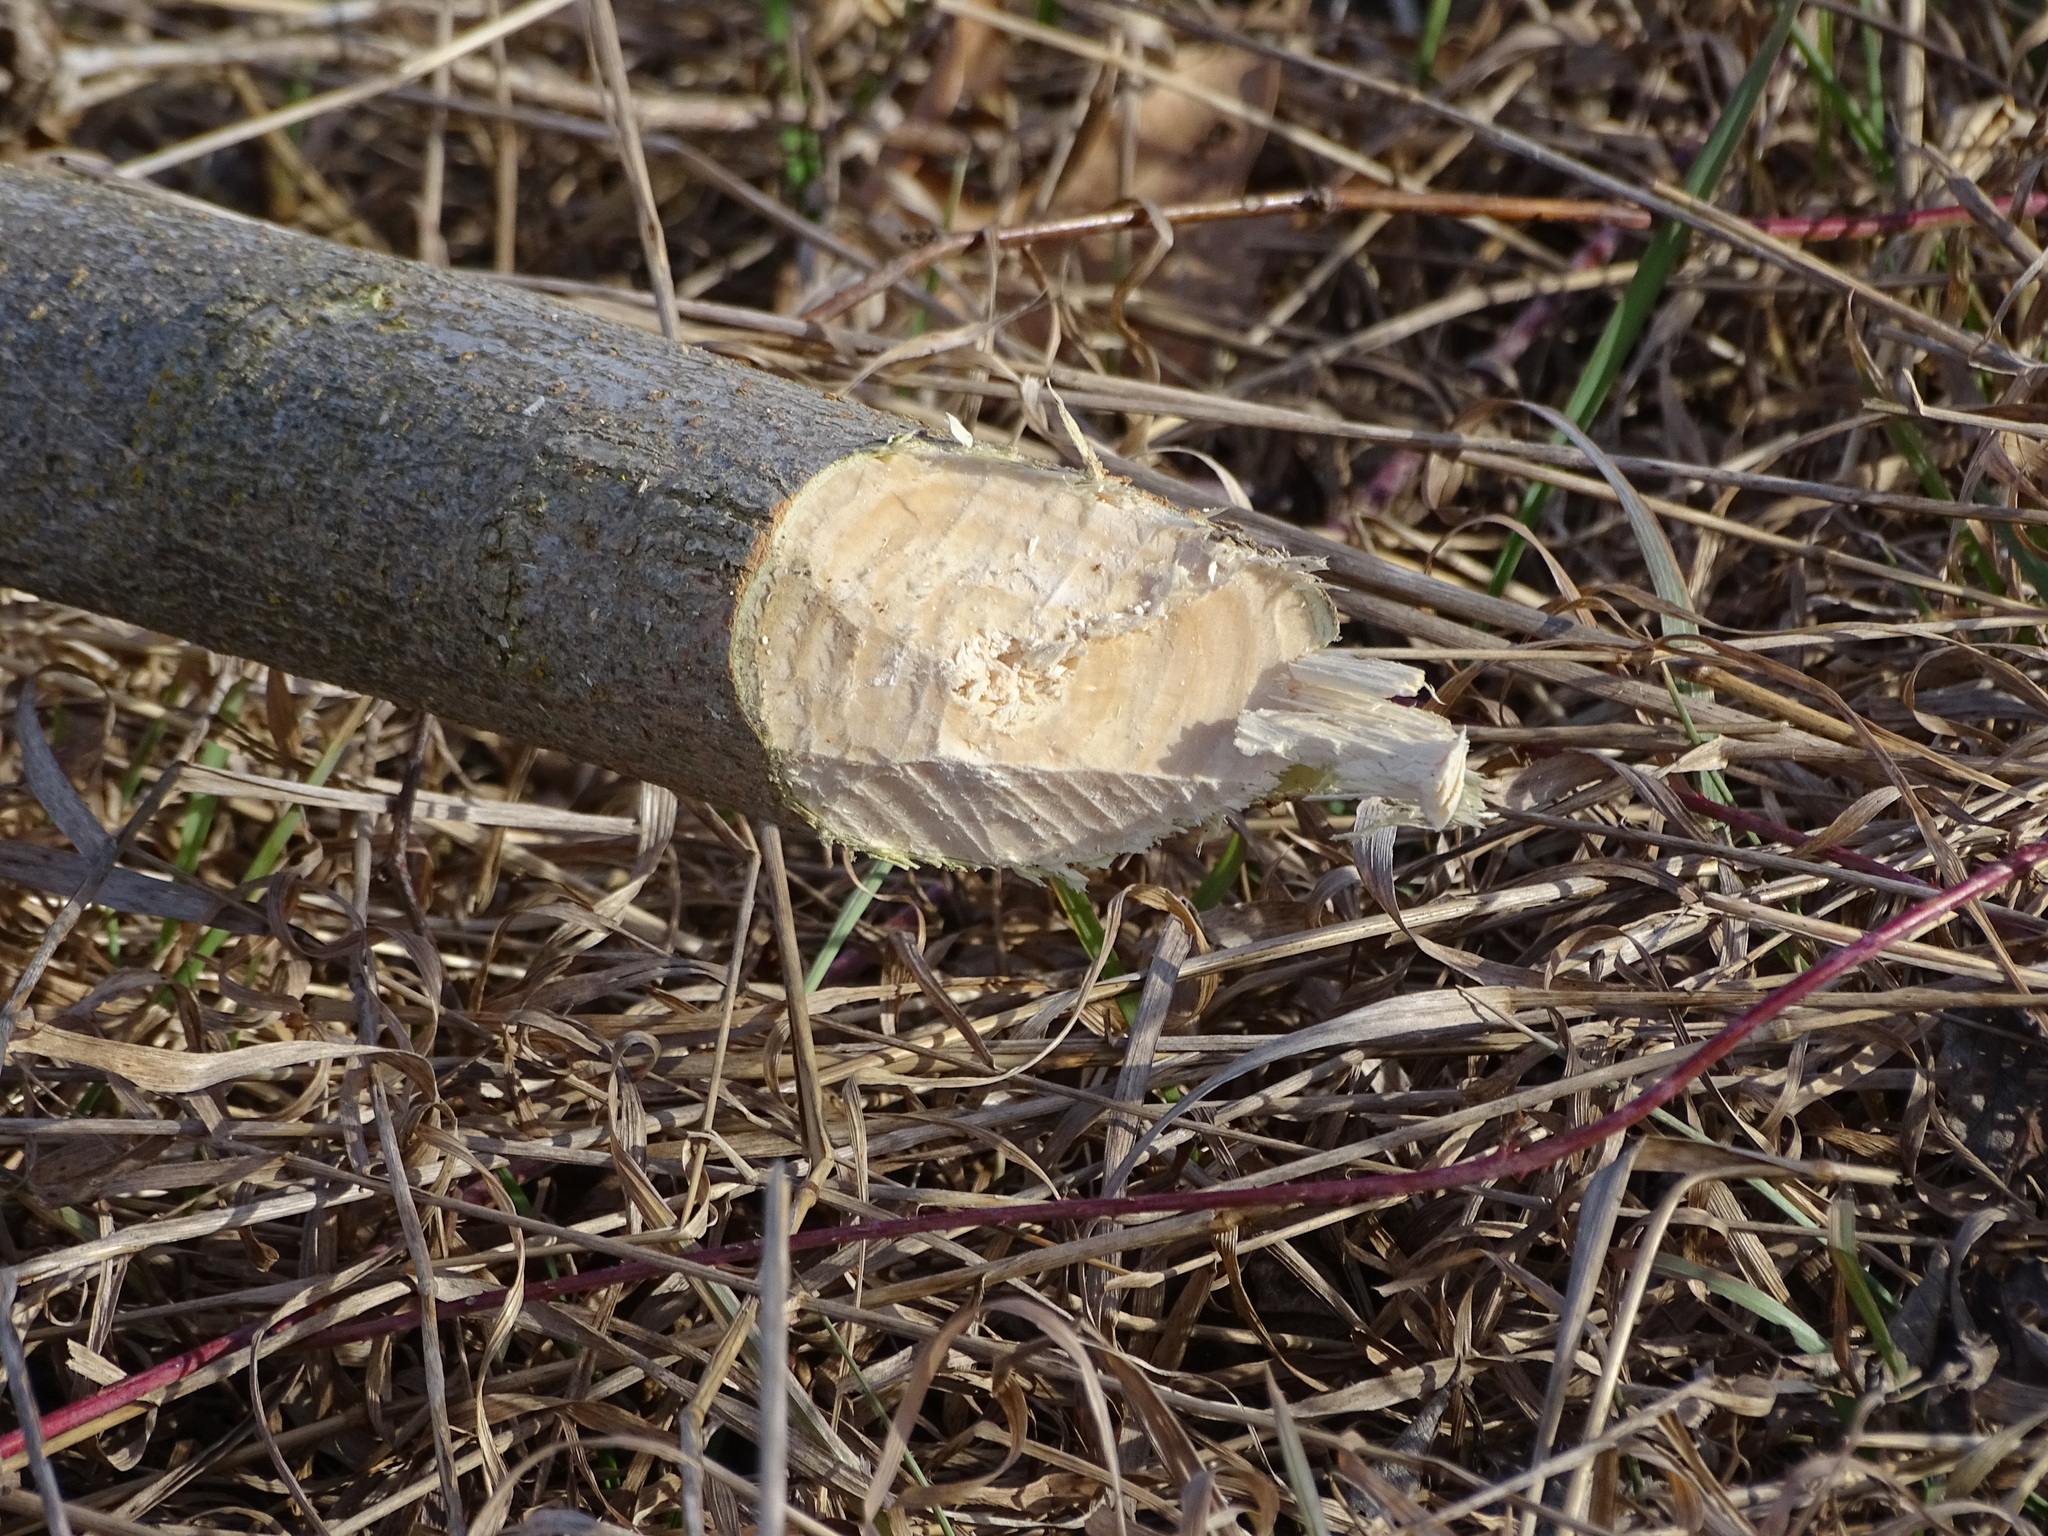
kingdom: Animalia
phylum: Chordata
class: Mammalia
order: Rodentia
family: Castoridae
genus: Castor
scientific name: Castor fiber
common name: Eurasian beaver
